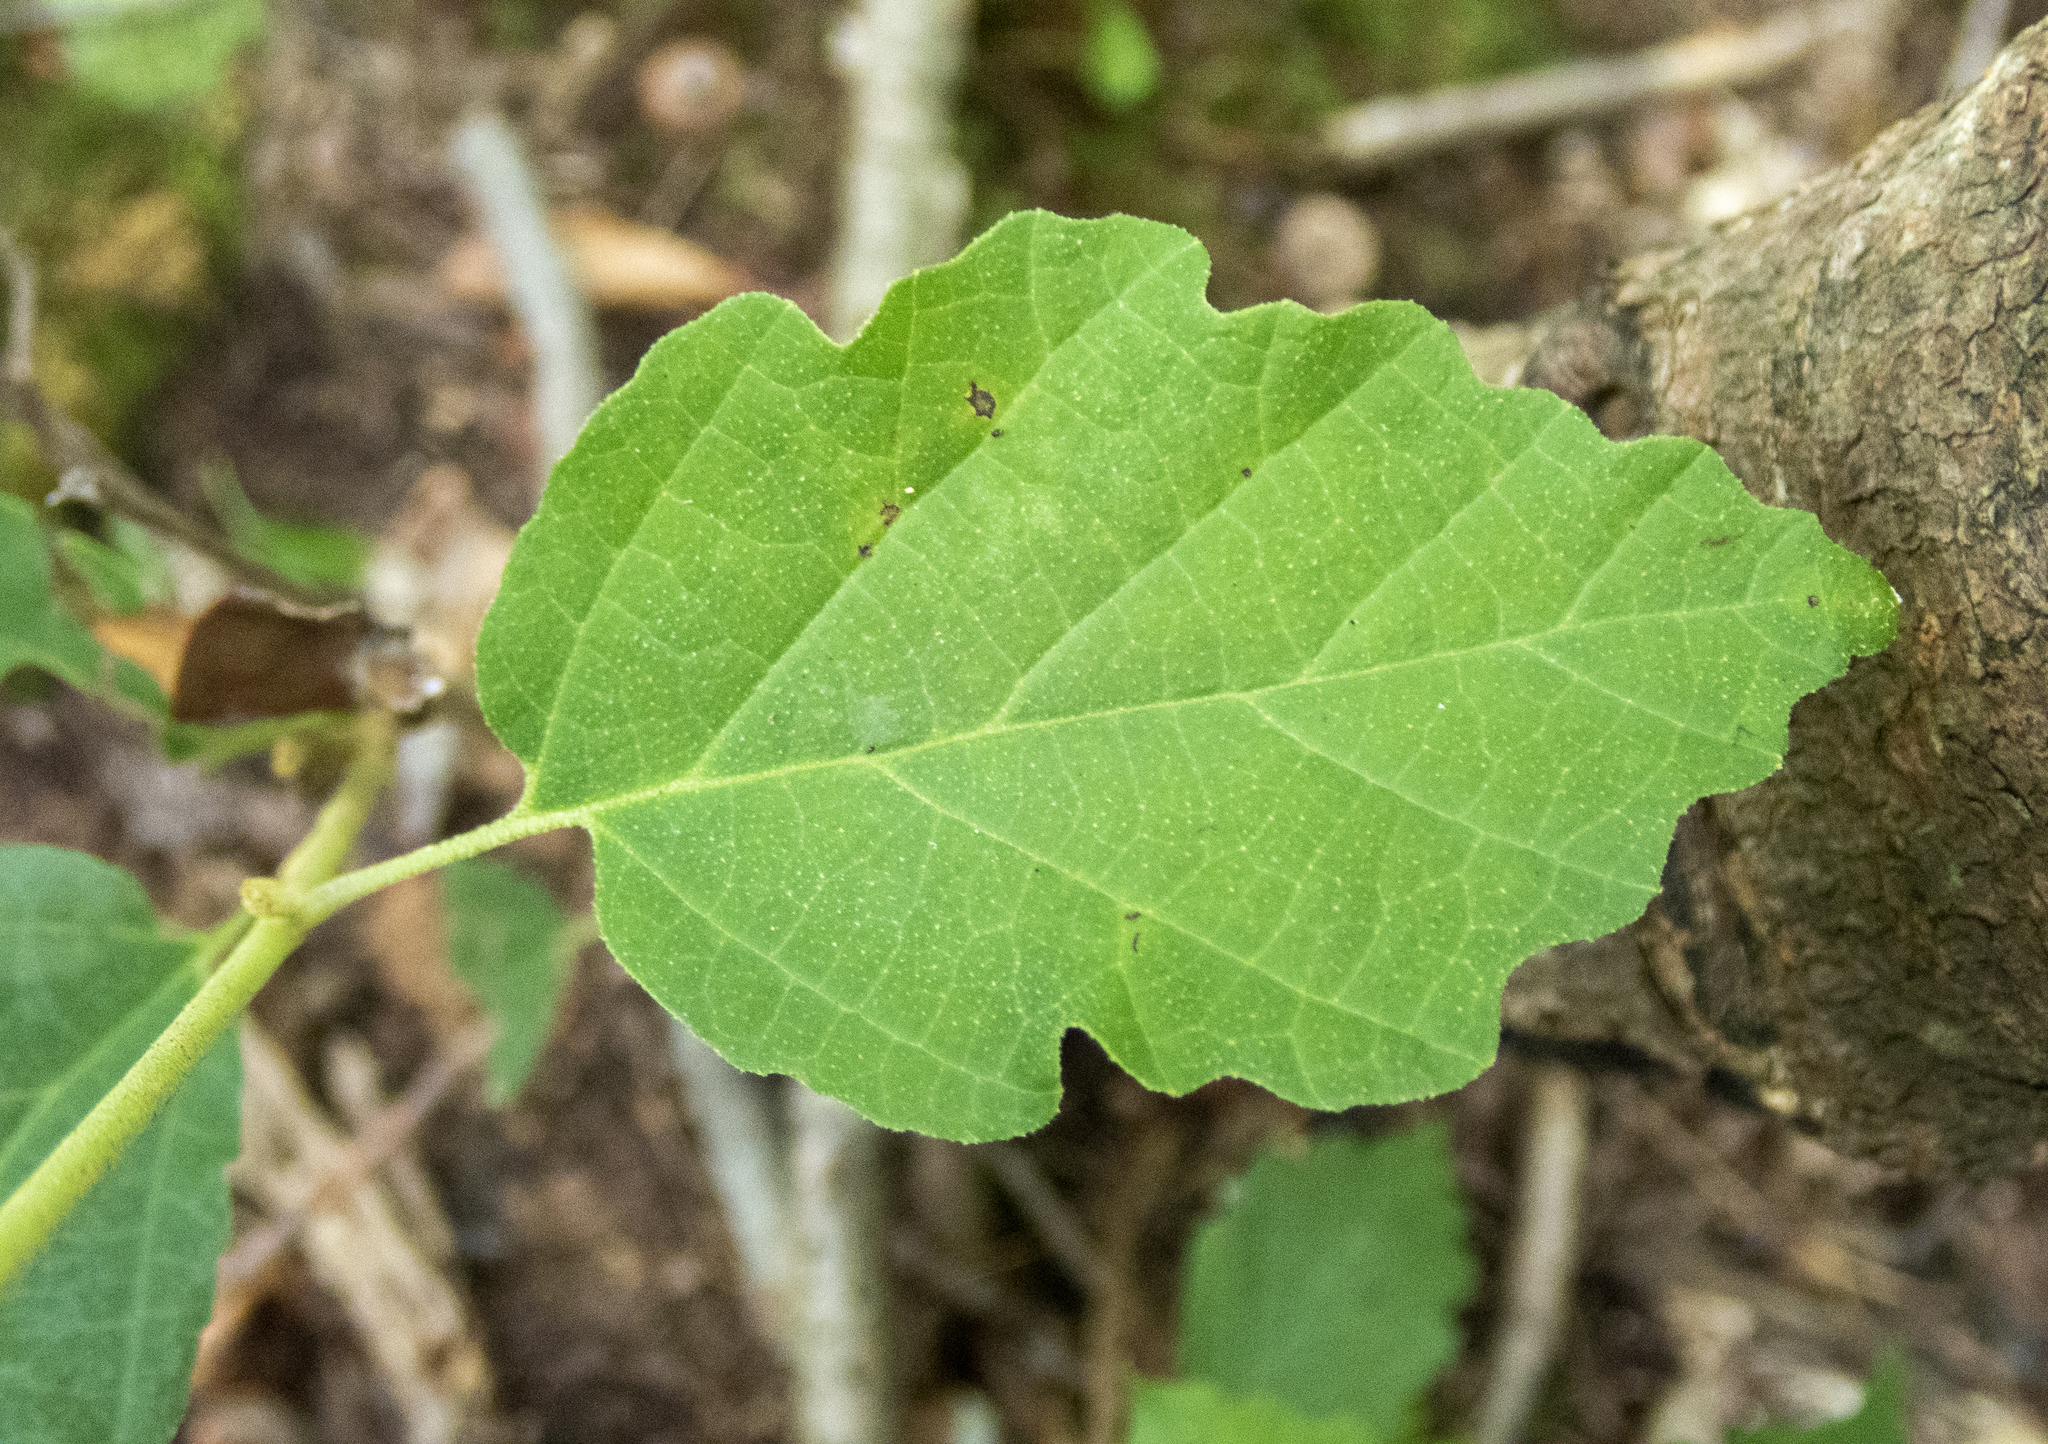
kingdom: Plantae
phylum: Tracheophyta
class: Magnoliopsida
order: Saxifragales
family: Hamamelidaceae
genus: Hamamelis
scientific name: Hamamelis virginiana
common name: Witch-hazel
